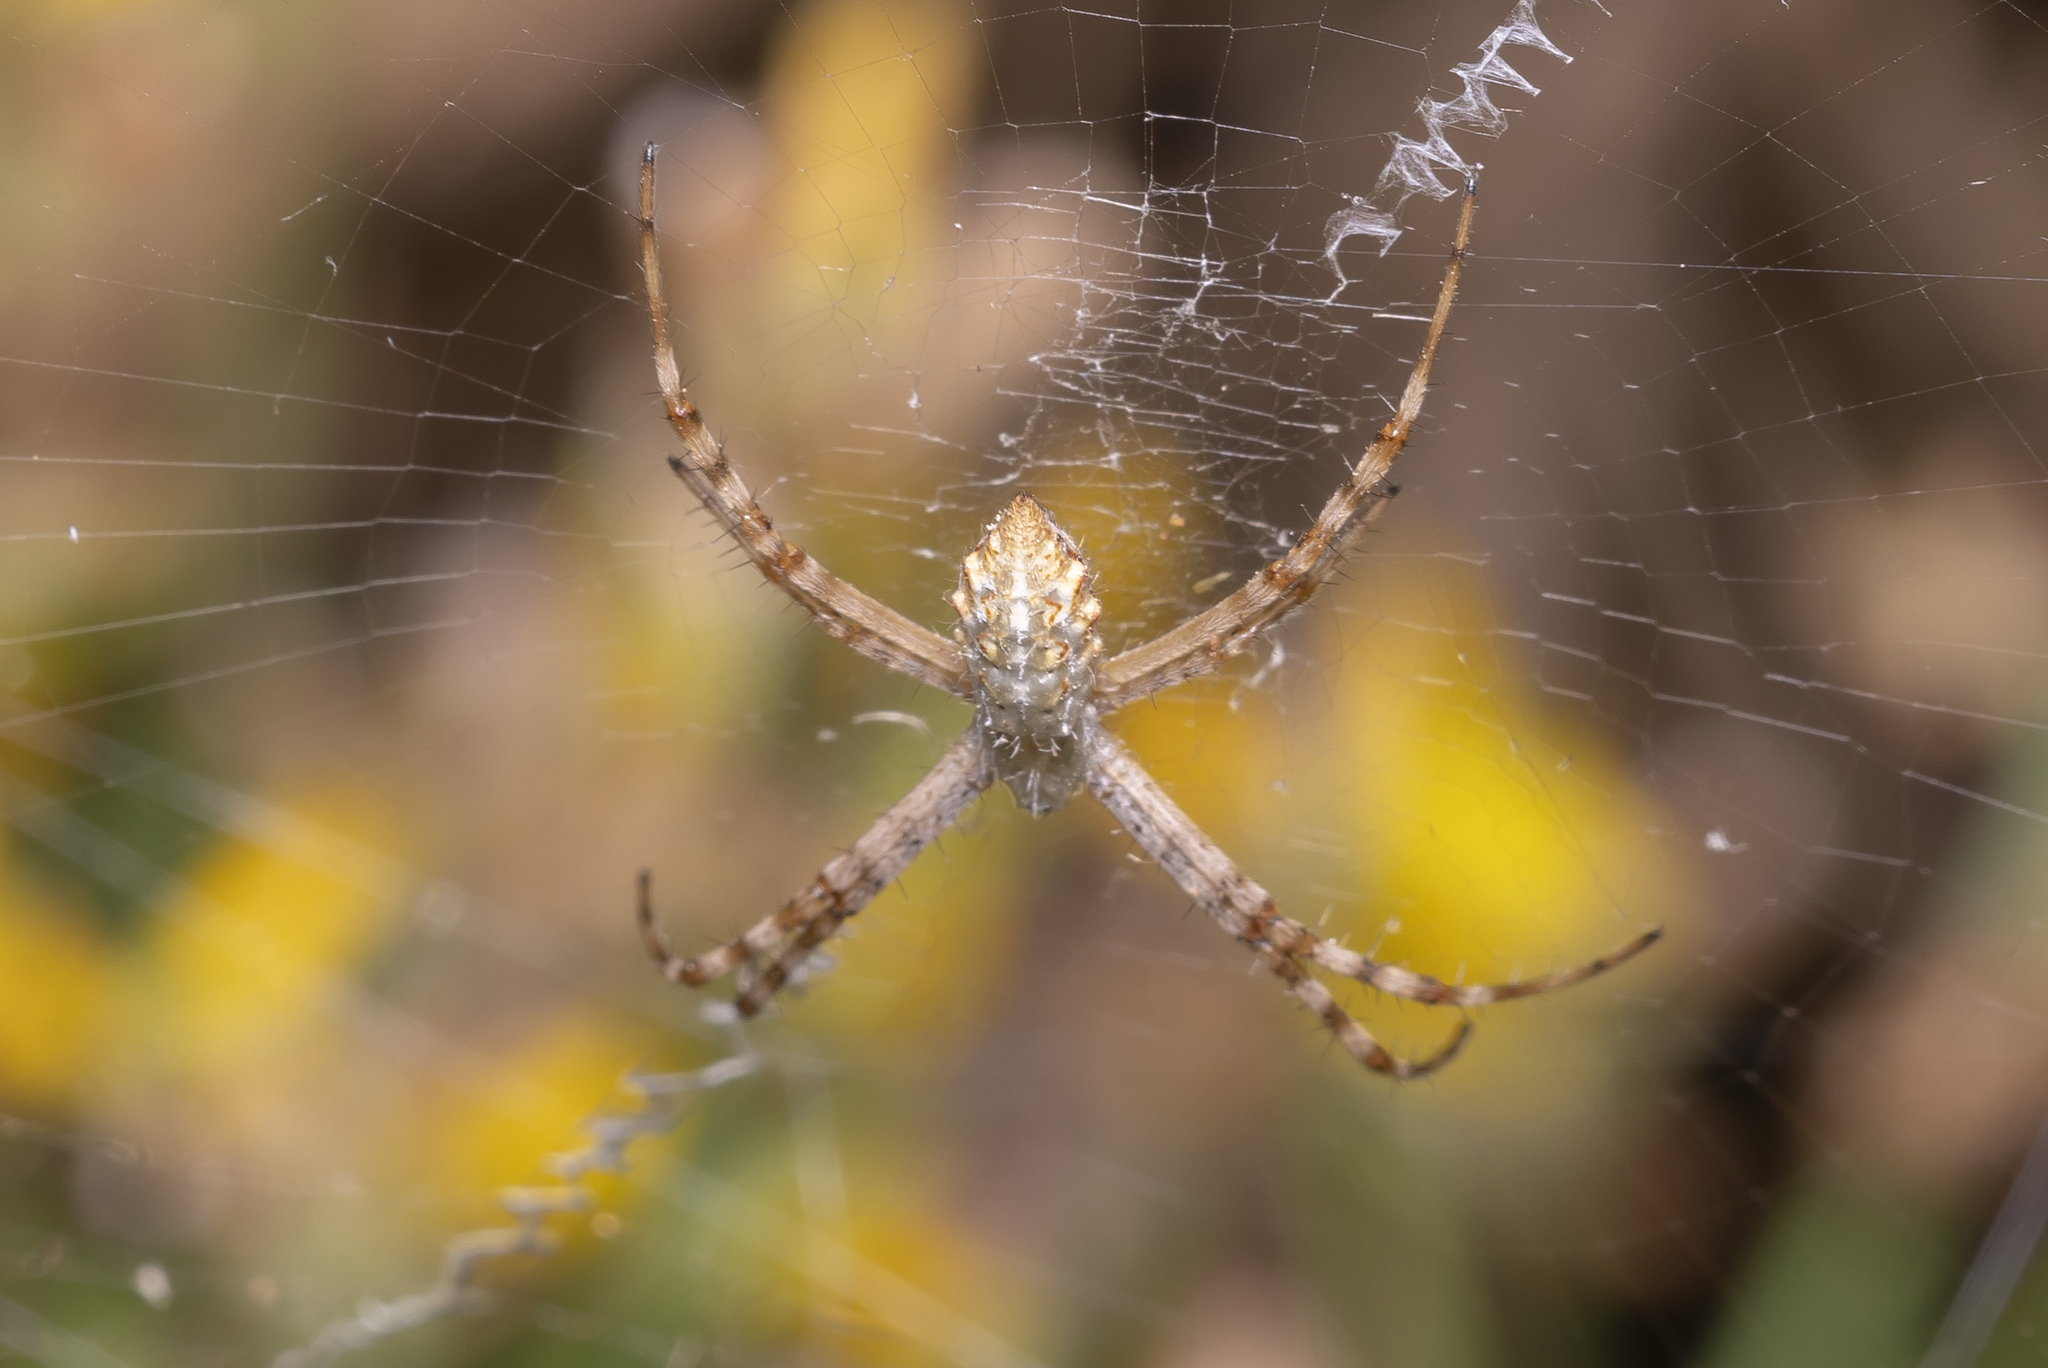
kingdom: Animalia
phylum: Arthropoda
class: Arachnida
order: Araneae
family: Araneidae
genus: Argiope
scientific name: Argiope lobata
